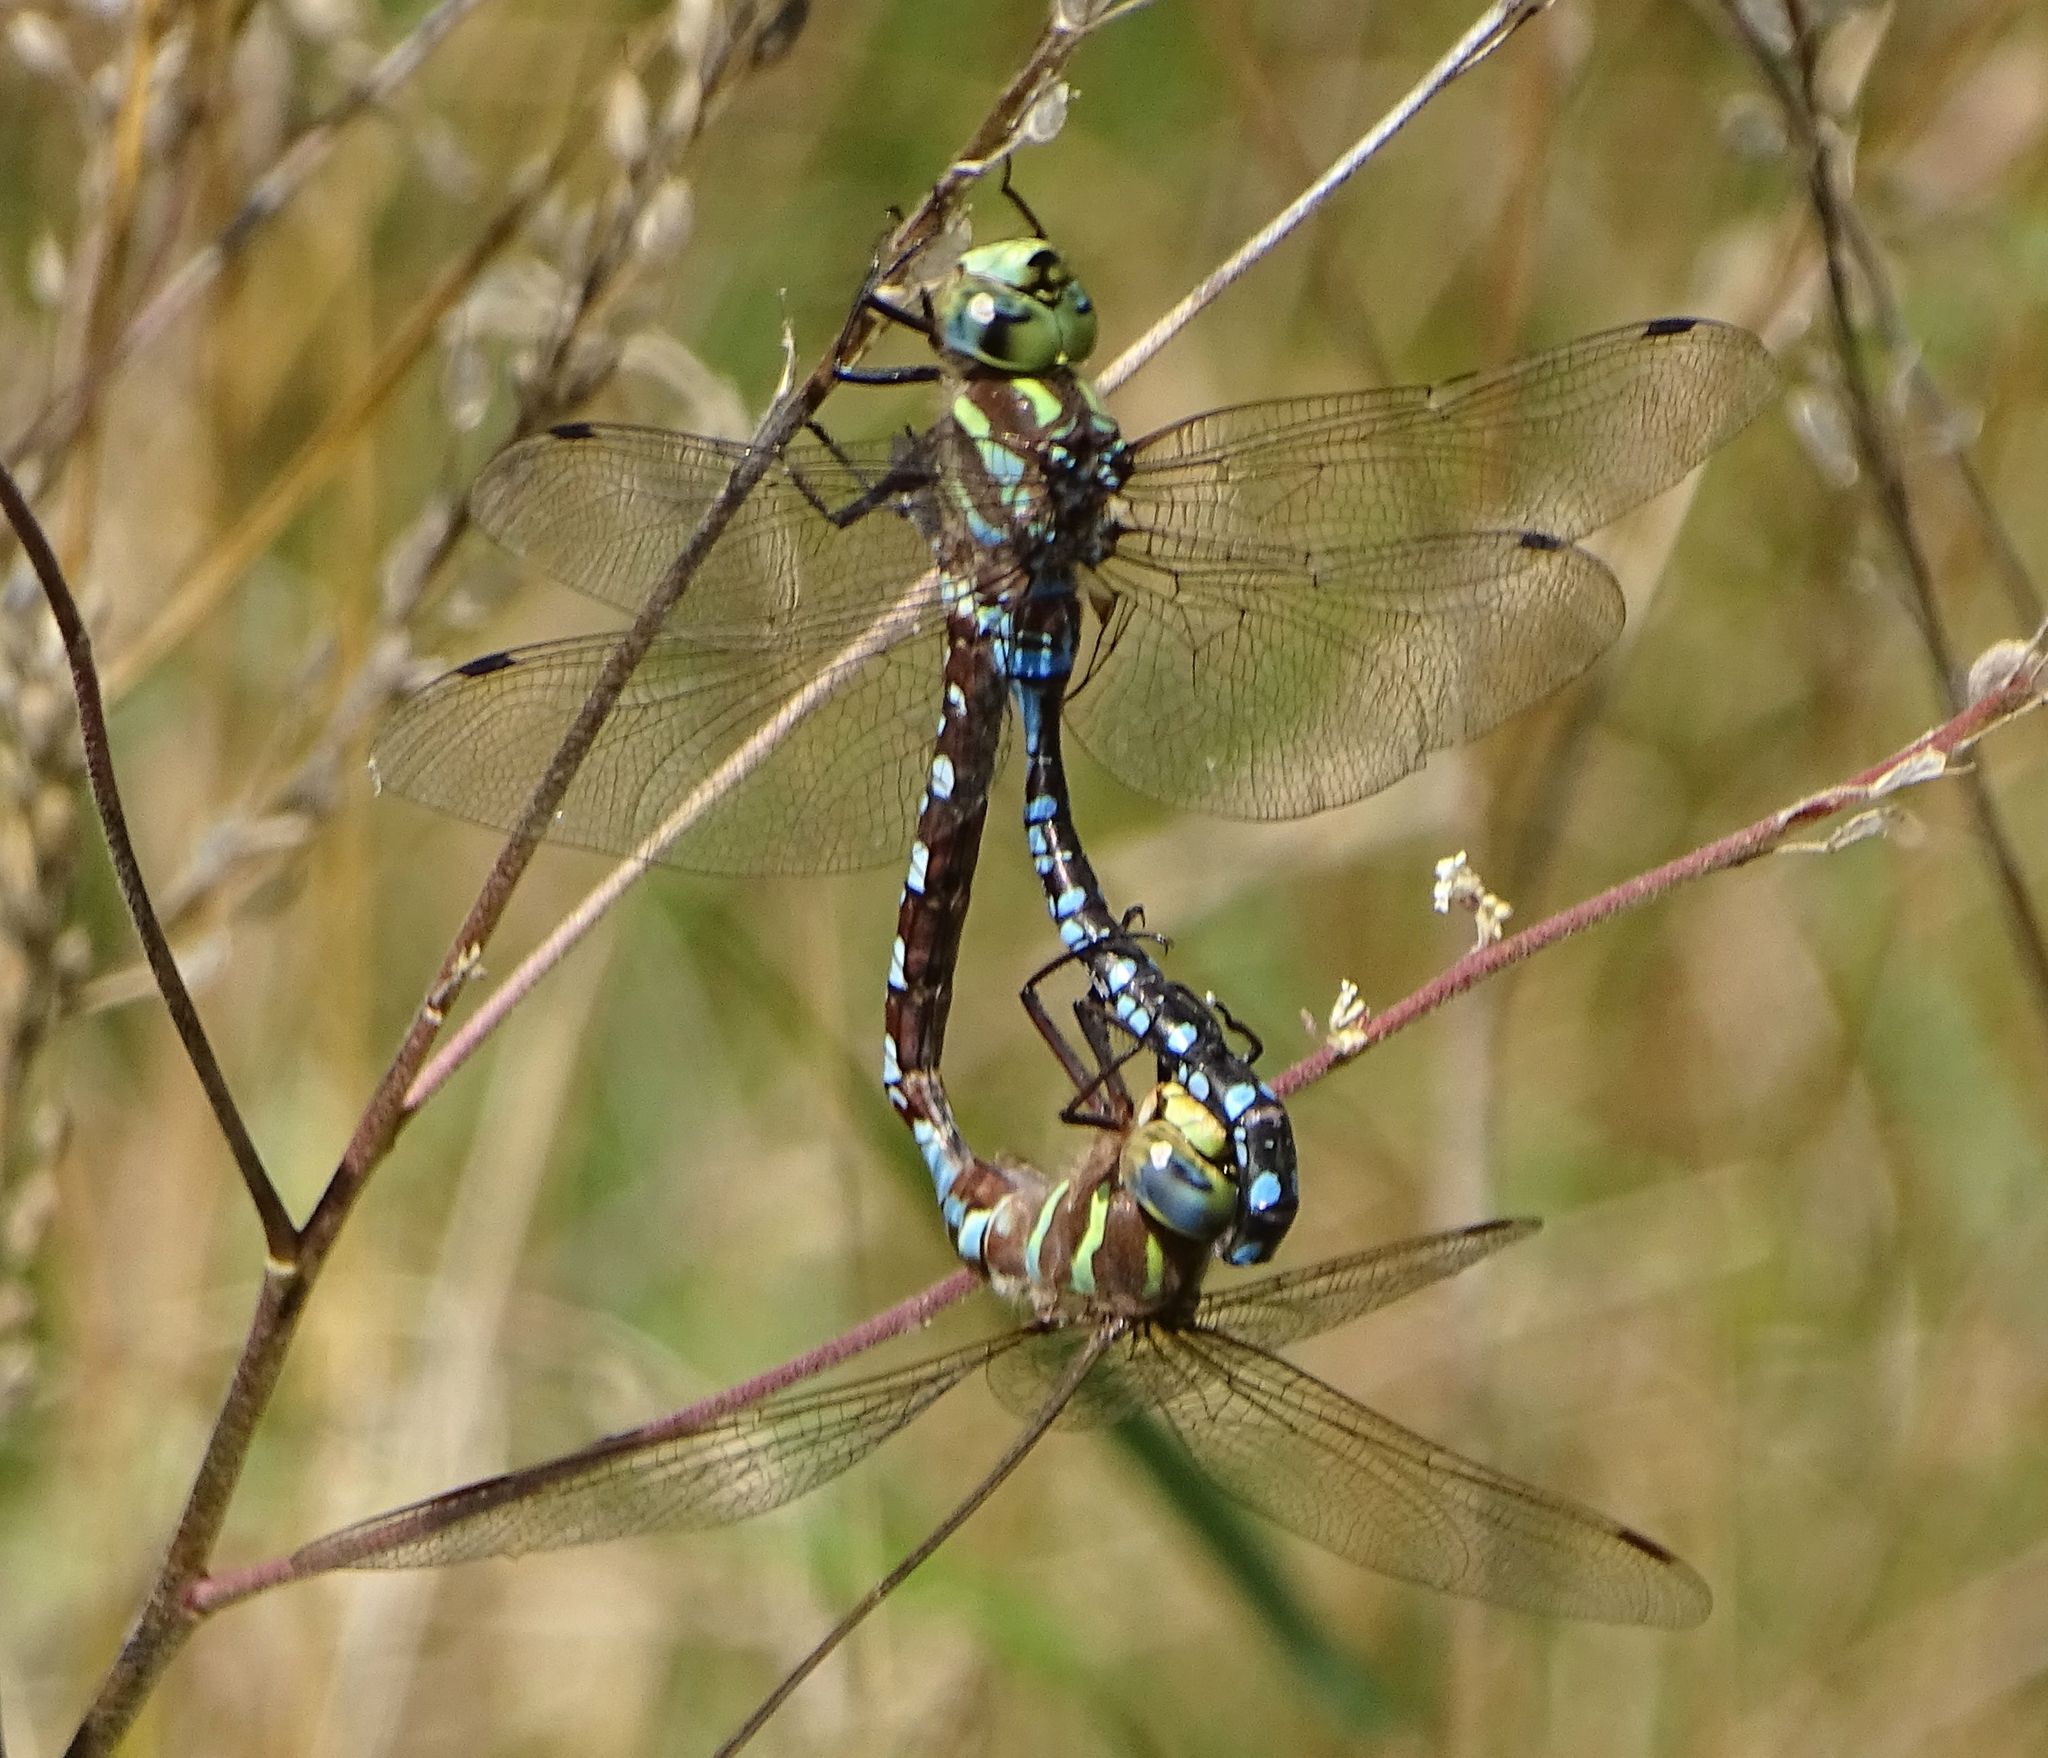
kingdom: Animalia
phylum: Arthropoda
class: Insecta
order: Odonata
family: Aeshnidae
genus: Aeshna
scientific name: Aeshna constricta
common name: Lance-tipped darner
